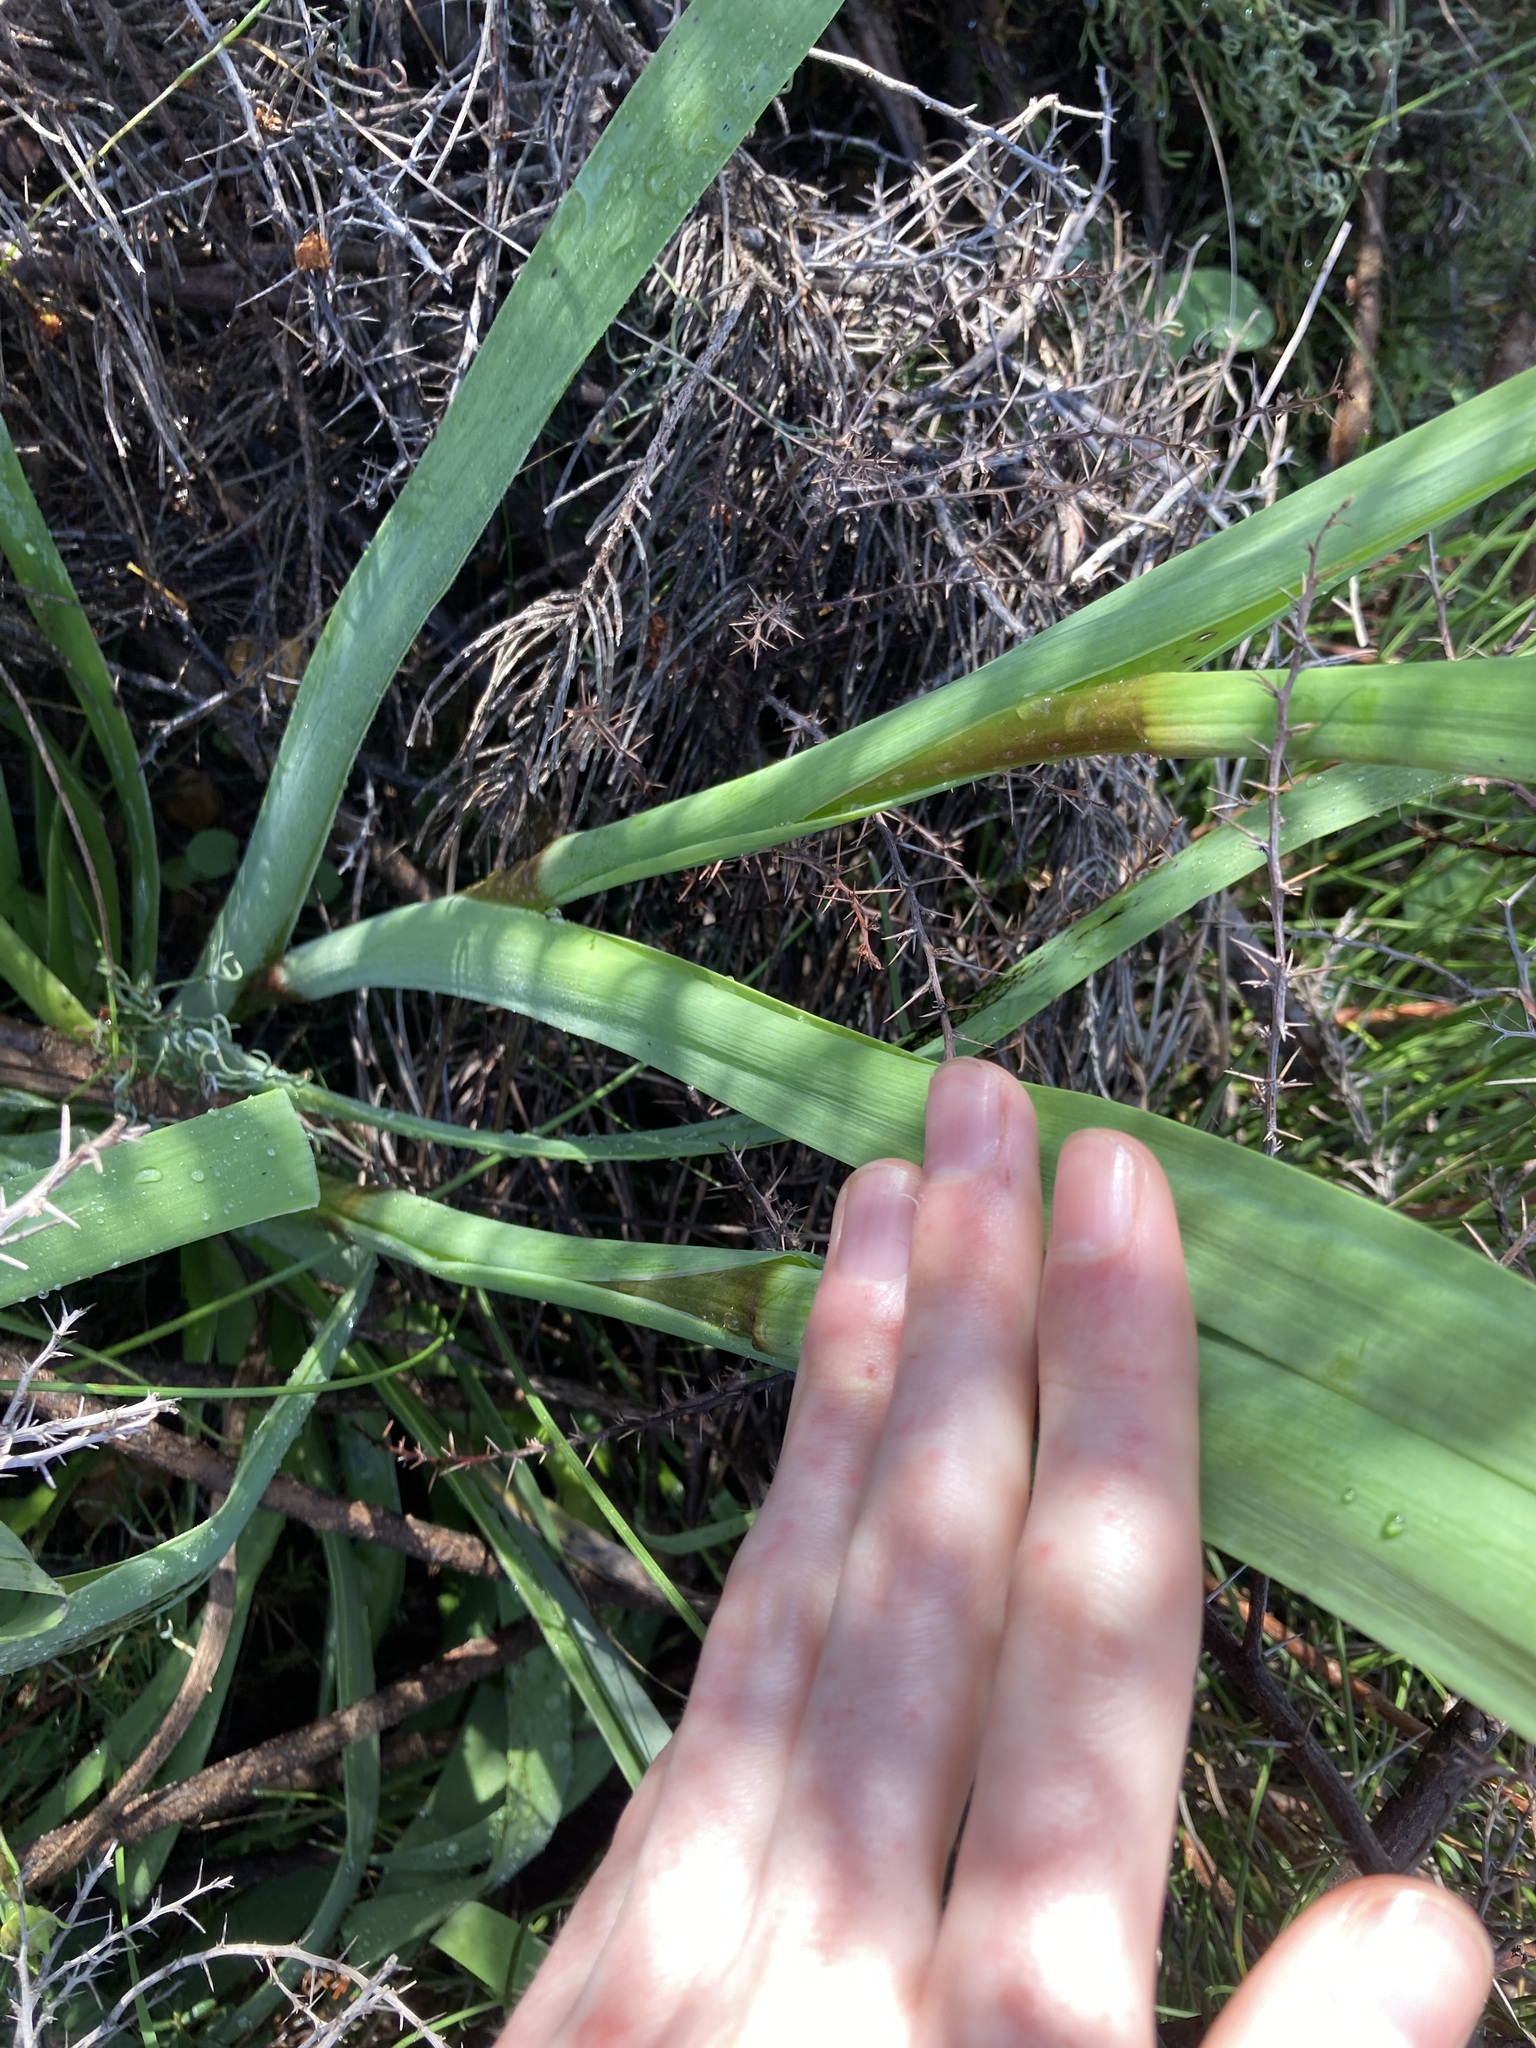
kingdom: Plantae
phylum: Tracheophyta
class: Liliopsida
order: Commelinales
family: Haemodoraceae
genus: Anigozanthos
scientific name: Anigozanthos manglesii
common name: Mangles's kangaroo-paw
